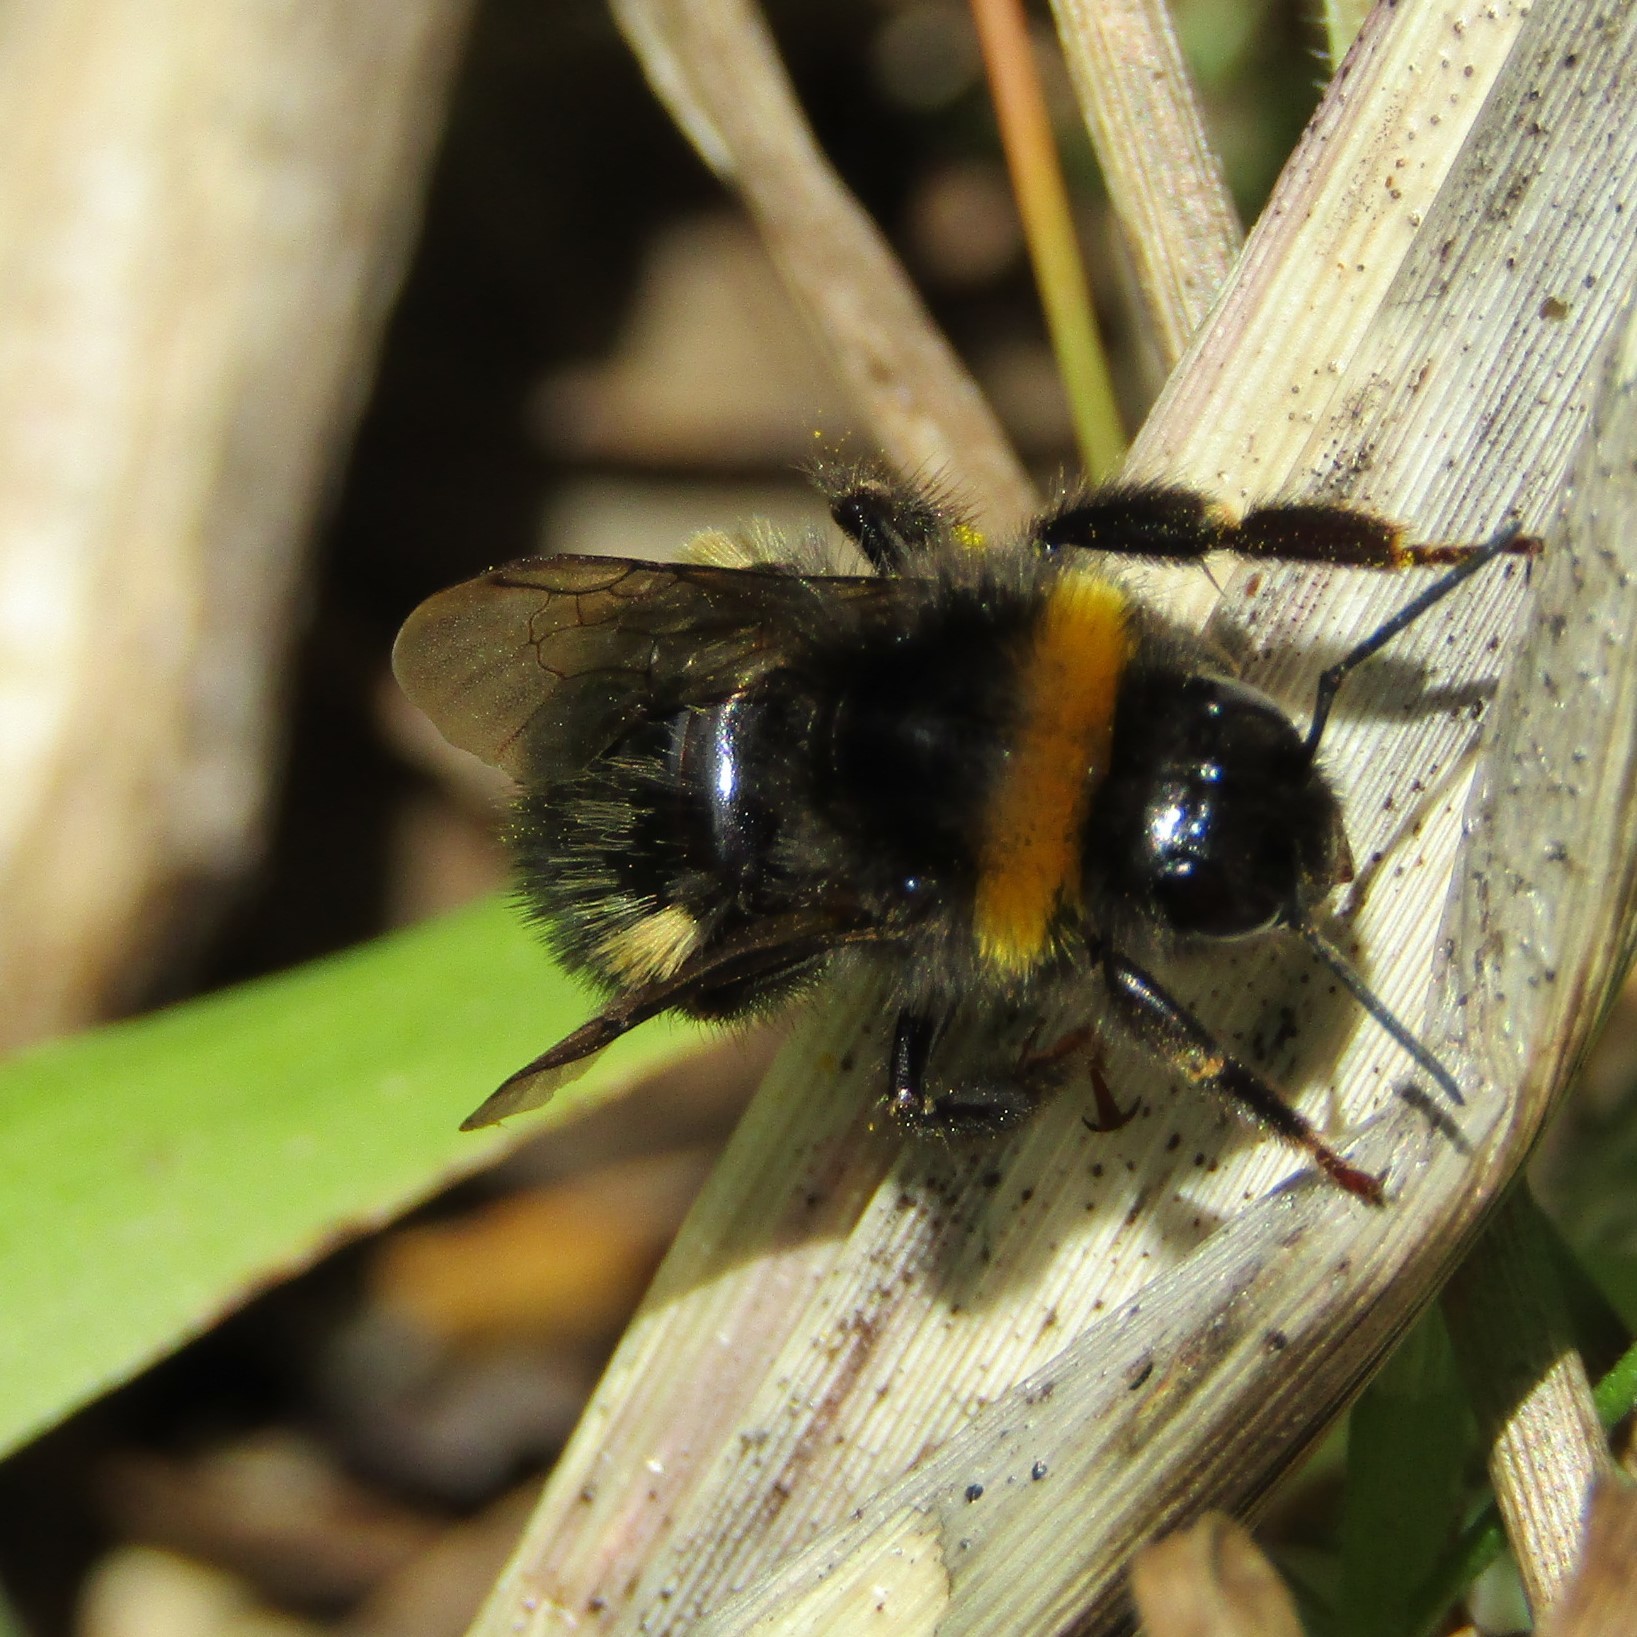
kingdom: Animalia
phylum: Arthropoda
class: Insecta
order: Hymenoptera
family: Apidae
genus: Bombus
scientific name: Bombus terrestris
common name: Buff-tailed bumblebee
